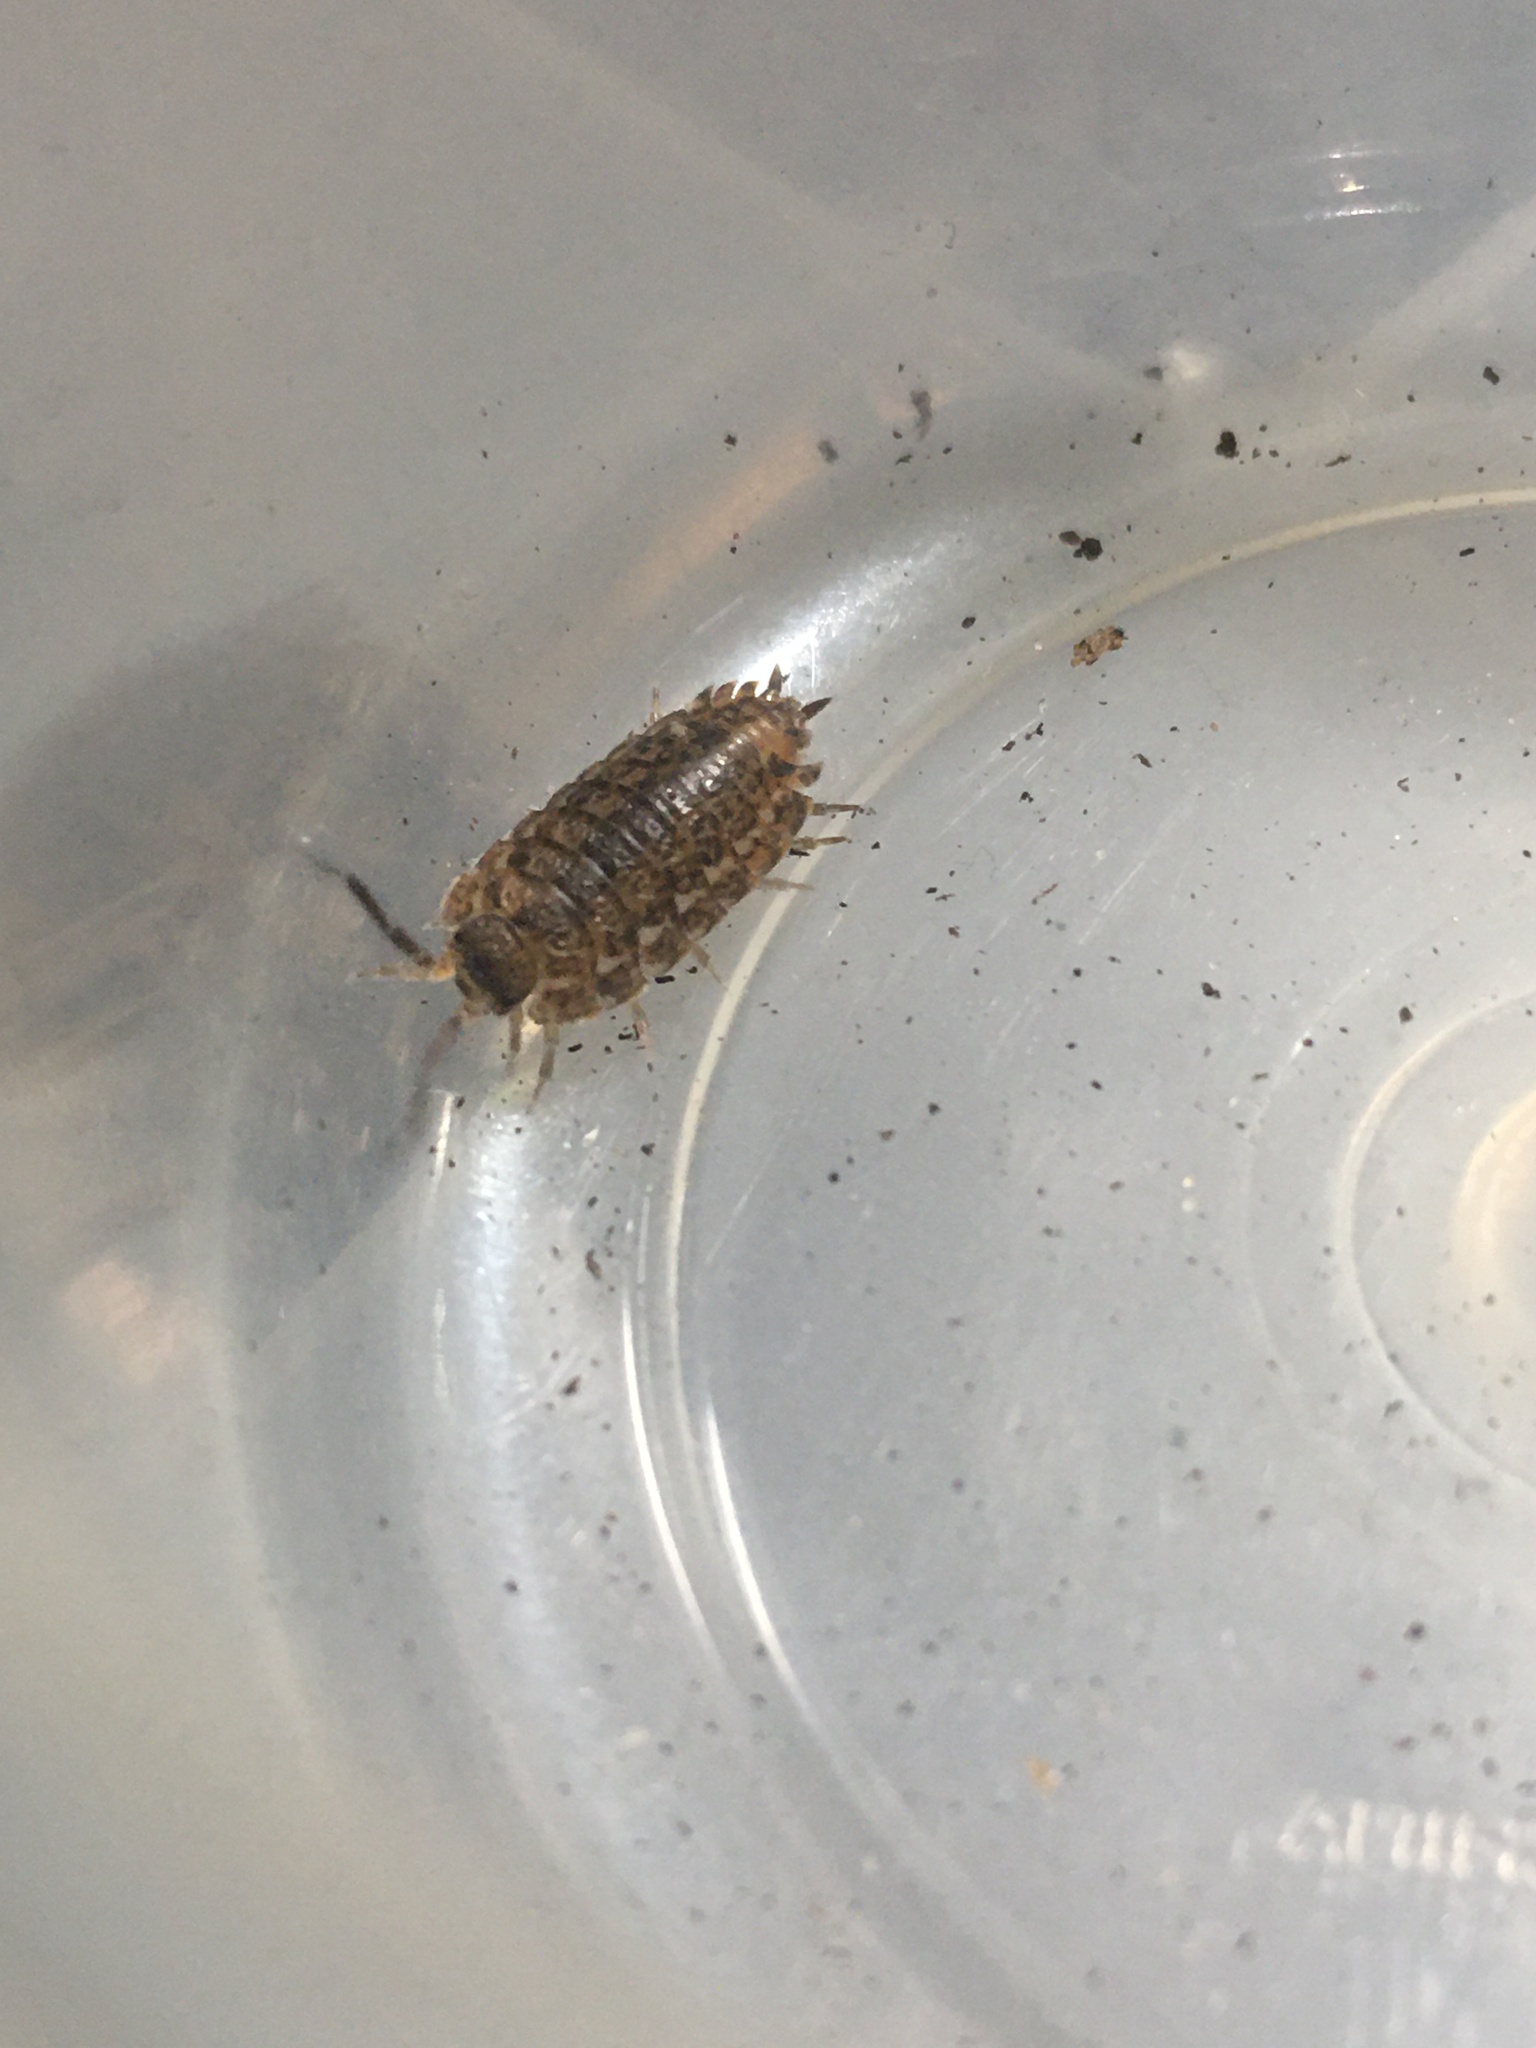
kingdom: Animalia
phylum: Arthropoda
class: Malacostraca
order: Isopoda
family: Trachelipodidae
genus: Trachelipus
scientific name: Trachelipus rathkii
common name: Isopod
